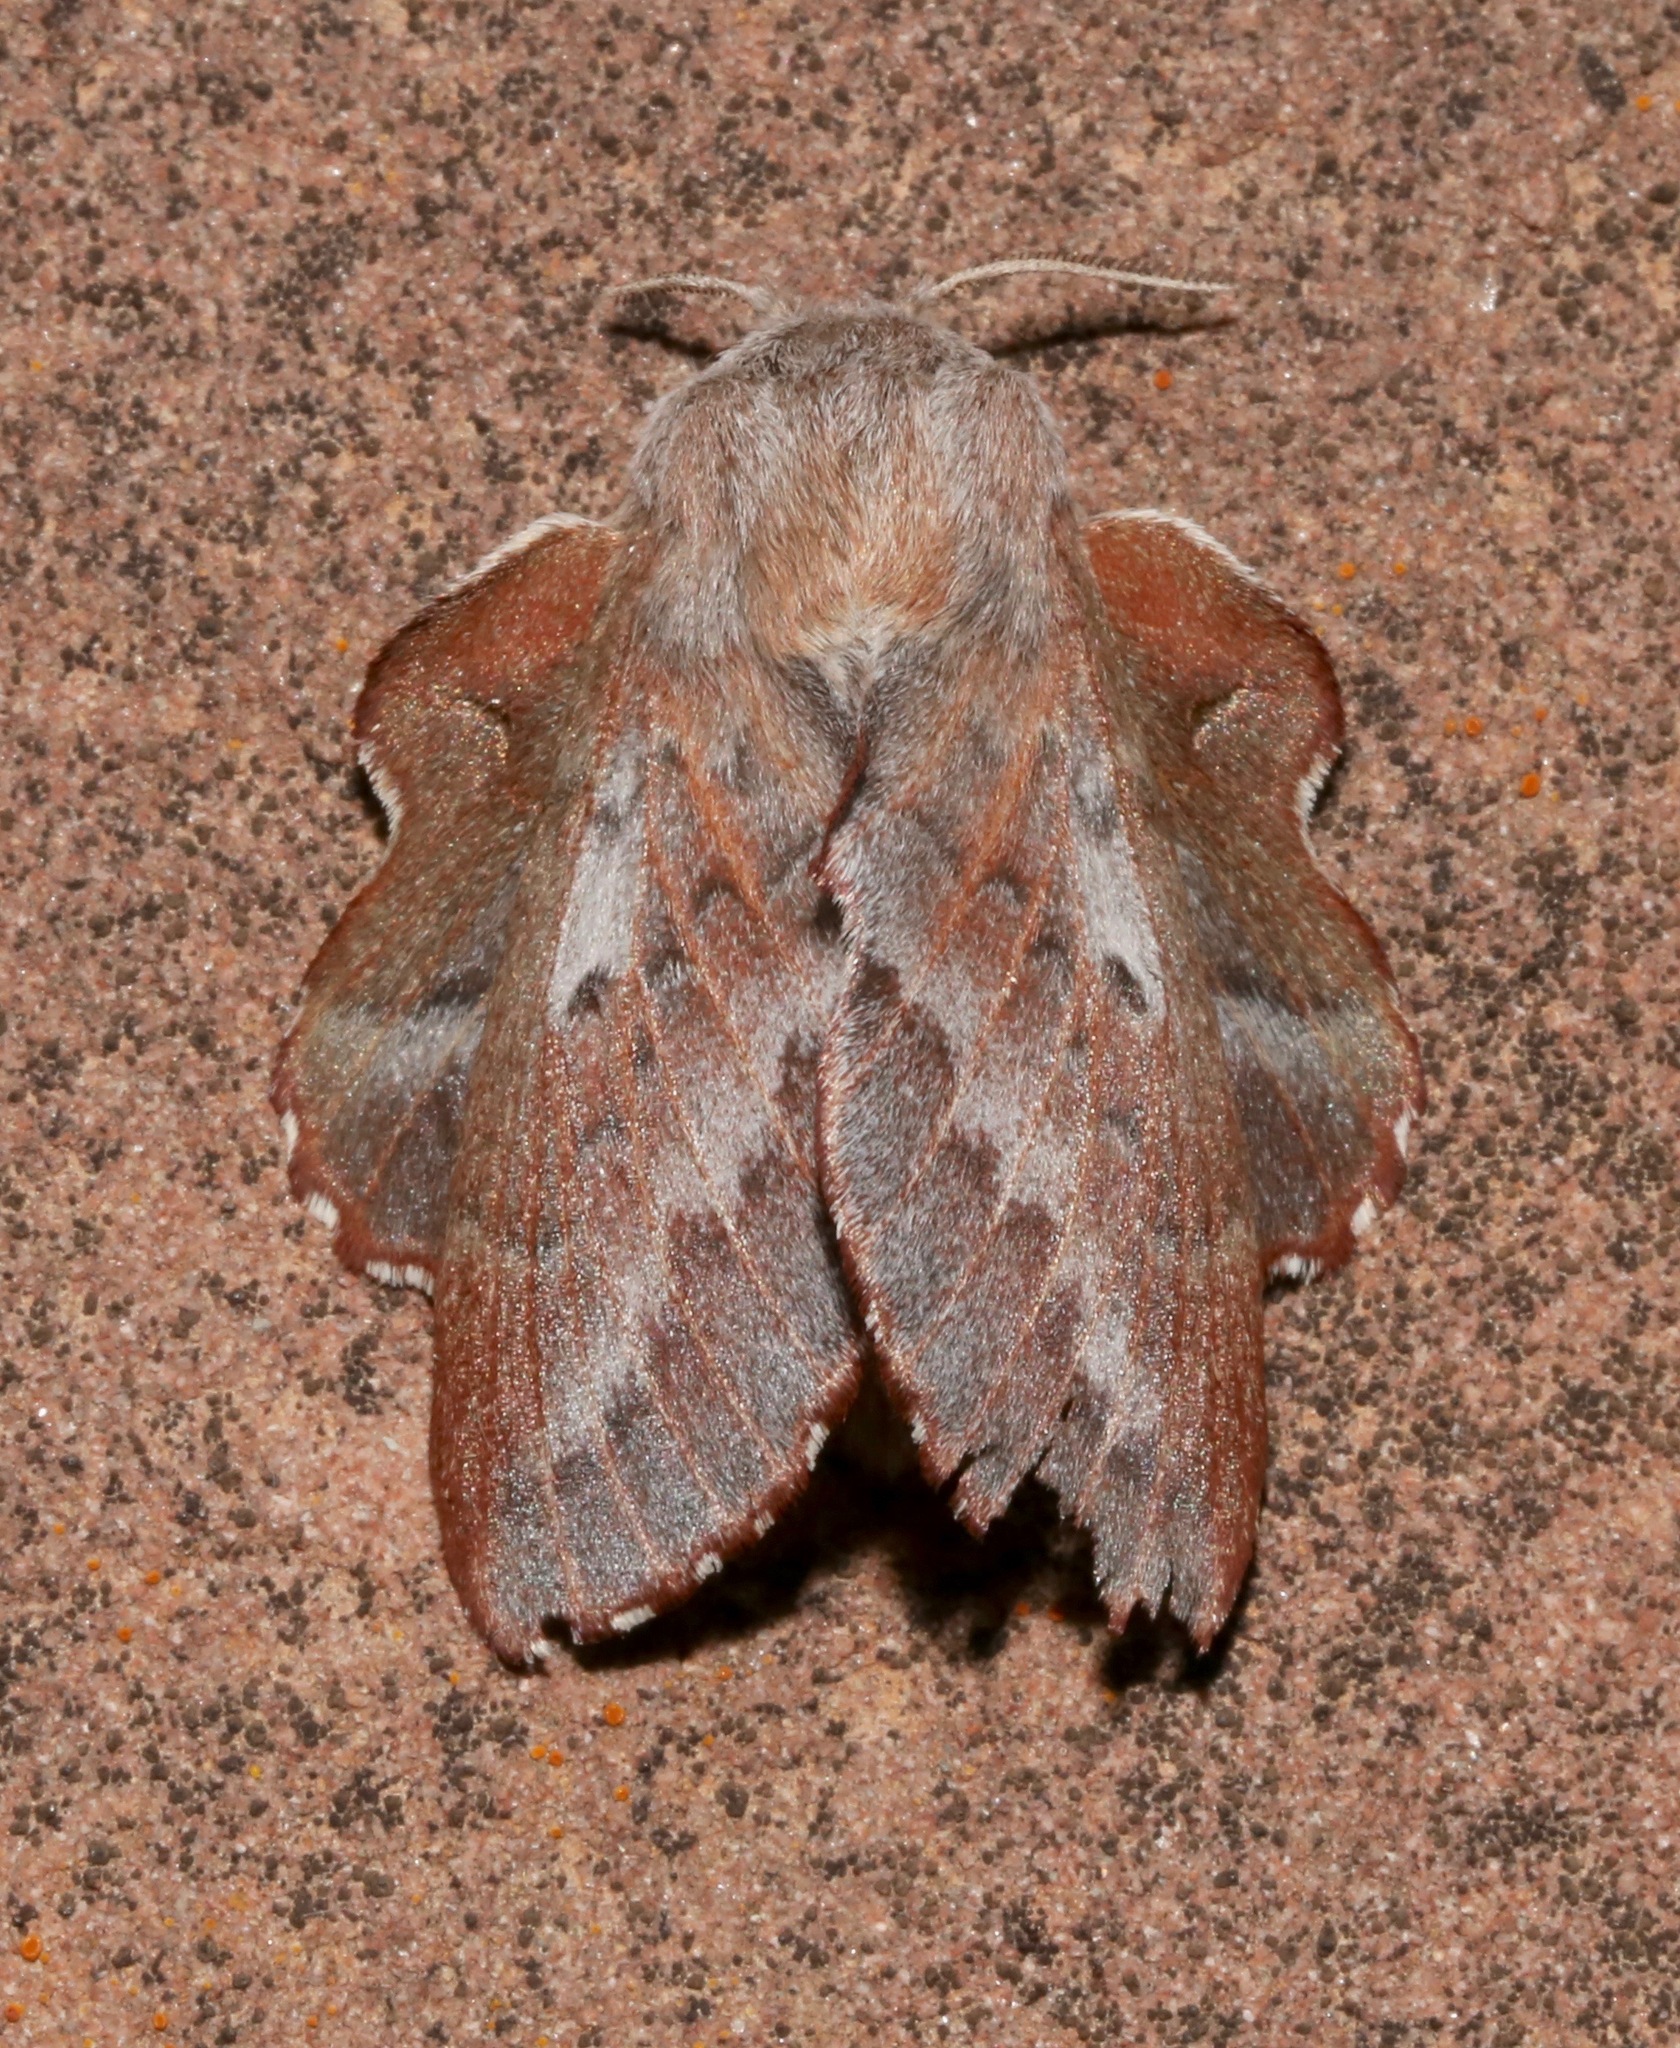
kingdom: Animalia
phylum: Arthropoda
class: Insecta
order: Lepidoptera
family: Lasiocampidae
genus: Phyllodesma
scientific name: Phyllodesma americana
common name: American lappet moth
